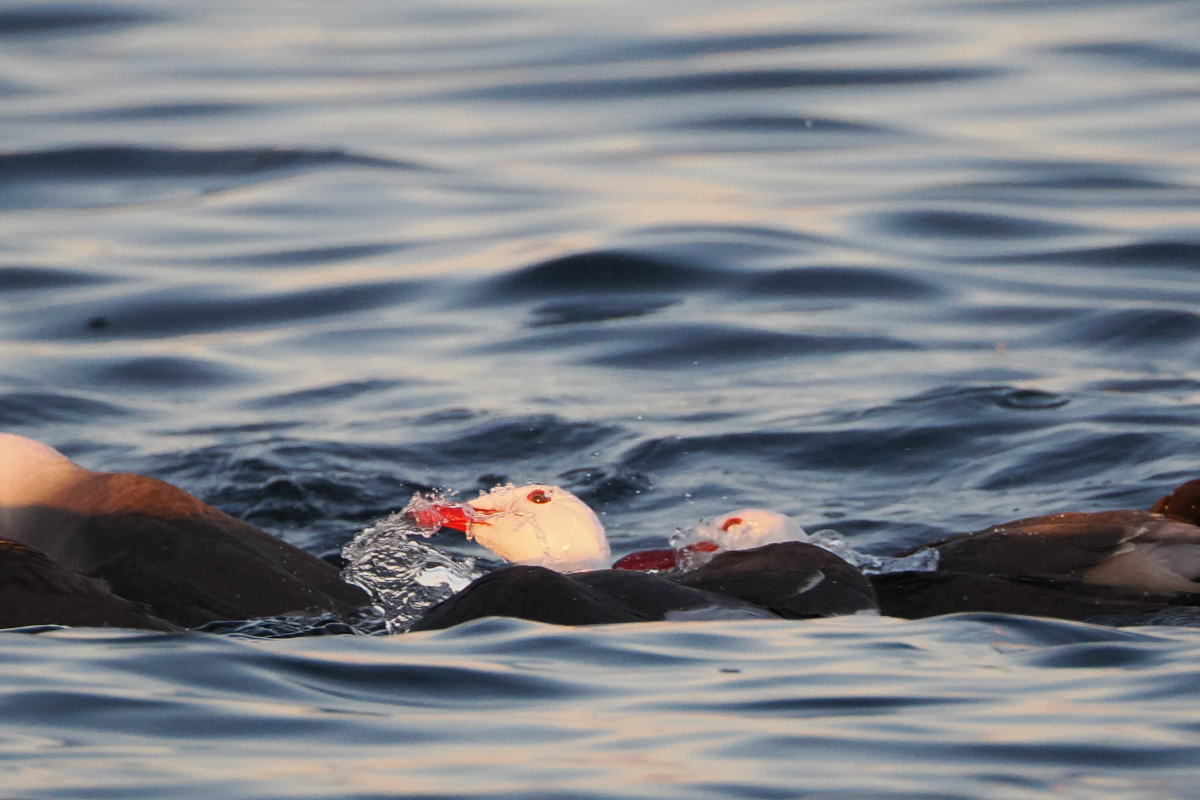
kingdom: Animalia
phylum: Chordata
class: Aves
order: Charadriiformes
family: Laridae
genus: Larus
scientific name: Larus heermanni
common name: Heermann's gull
